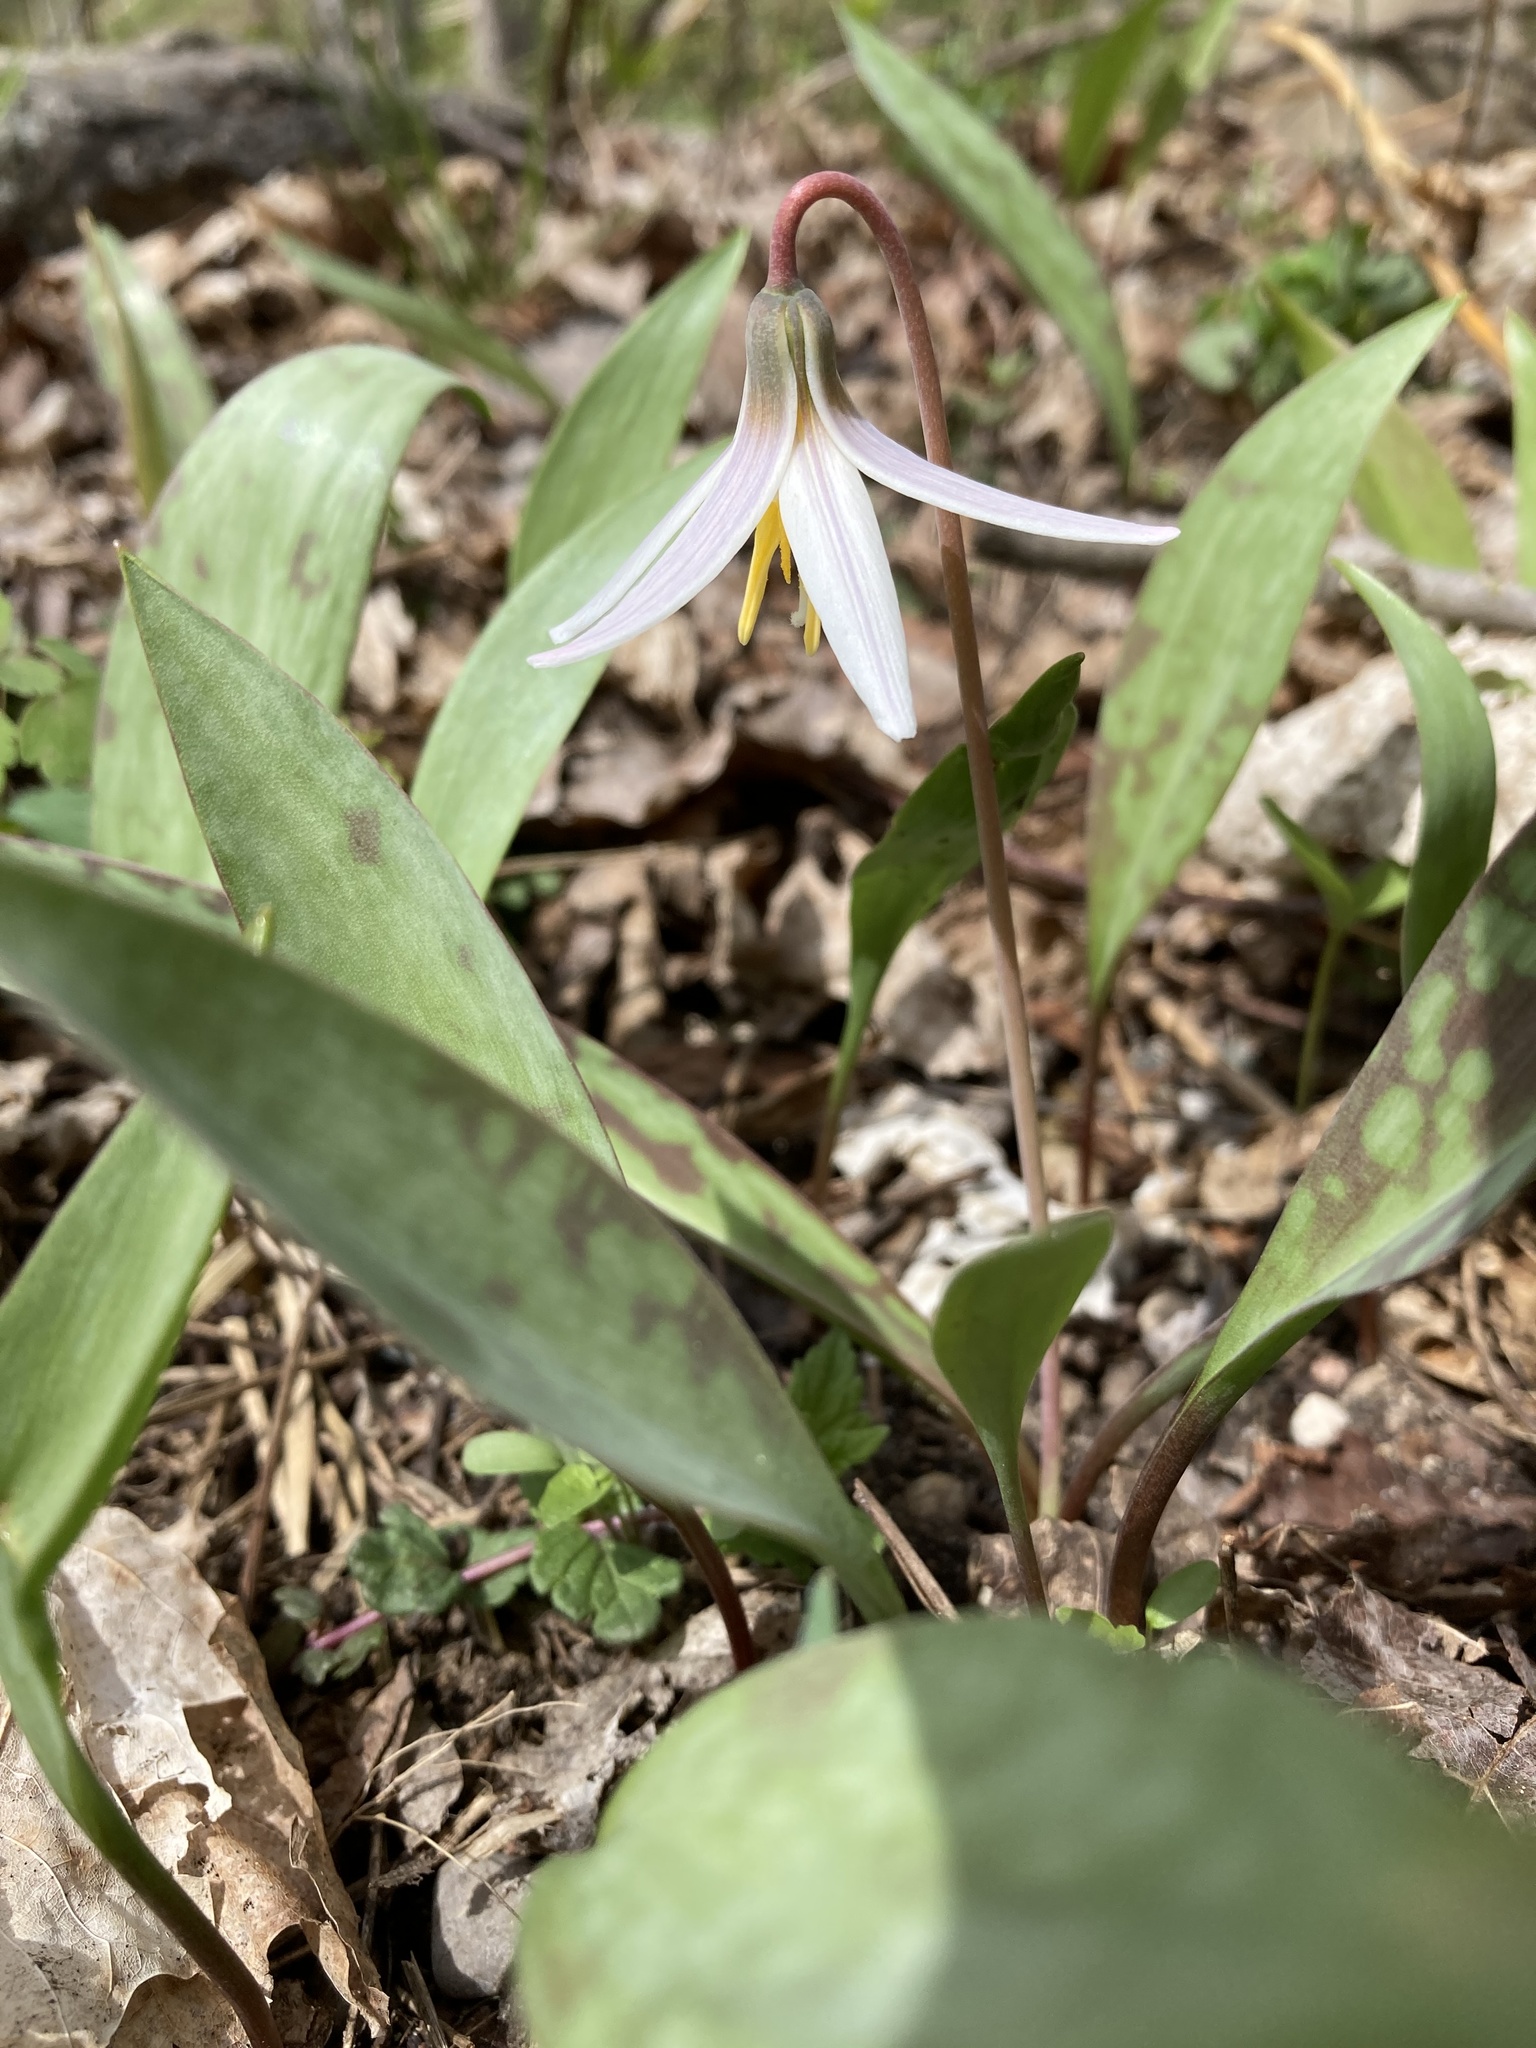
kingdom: Plantae
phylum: Tracheophyta
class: Liliopsida
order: Liliales
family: Liliaceae
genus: Erythronium
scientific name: Erythronium albidum
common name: White trout-lily
